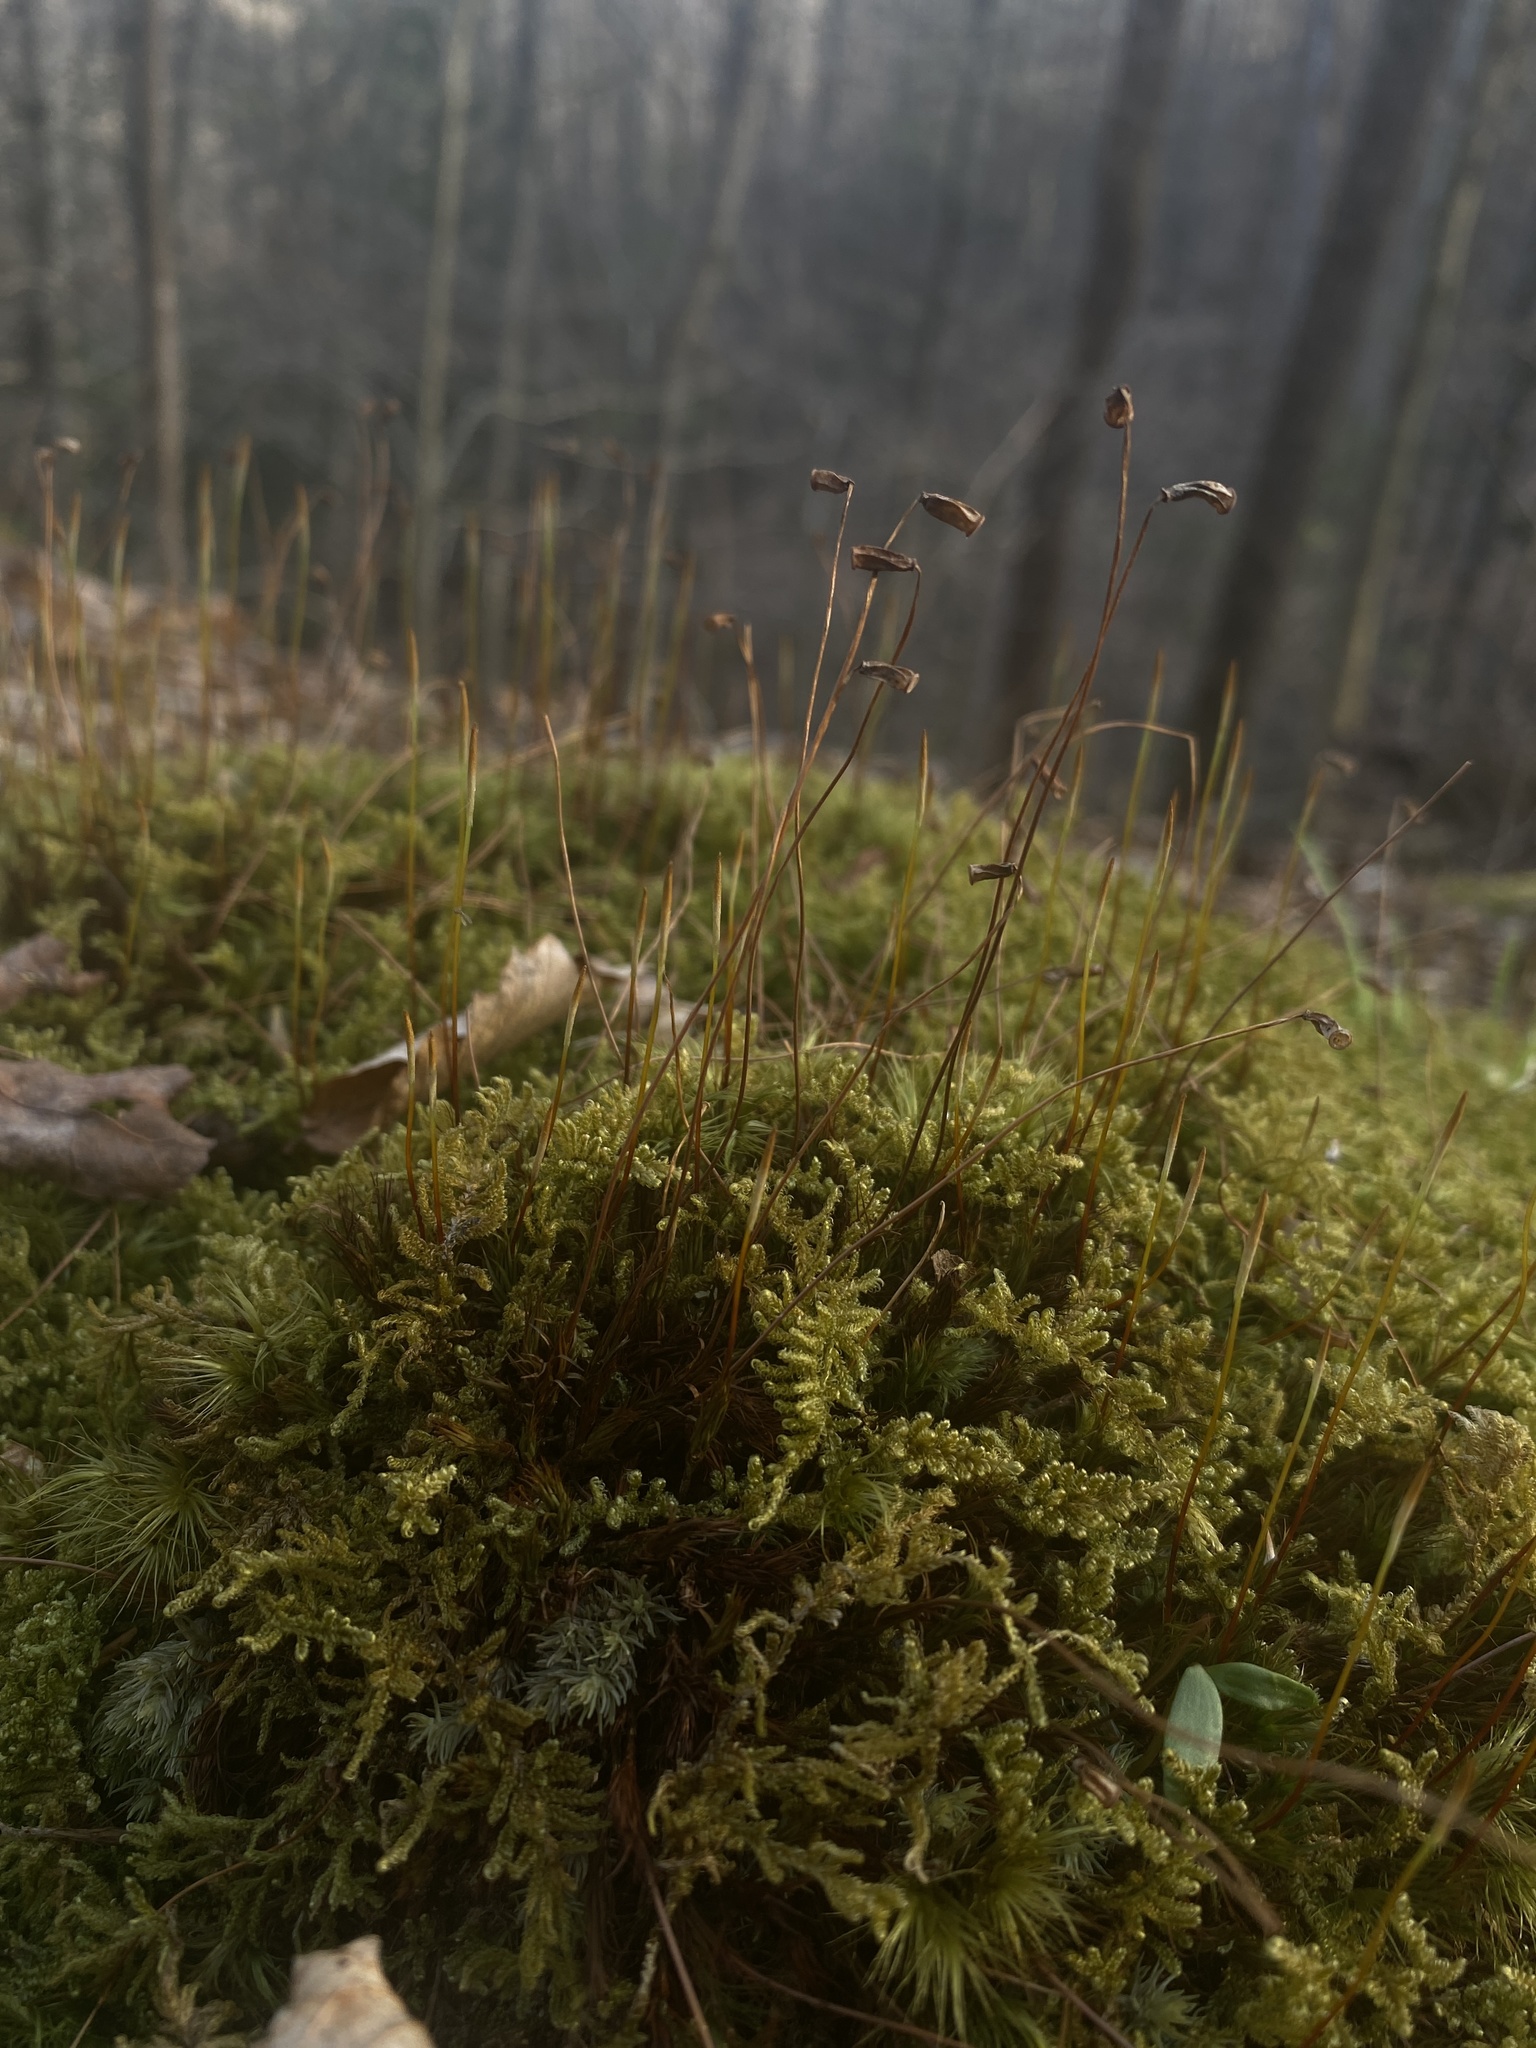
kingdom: Plantae
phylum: Bryophyta
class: Bryopsida
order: Hypnales
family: Callicladiaceae
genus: Callicladium
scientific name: Callicladium imponens
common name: Brocade moss
